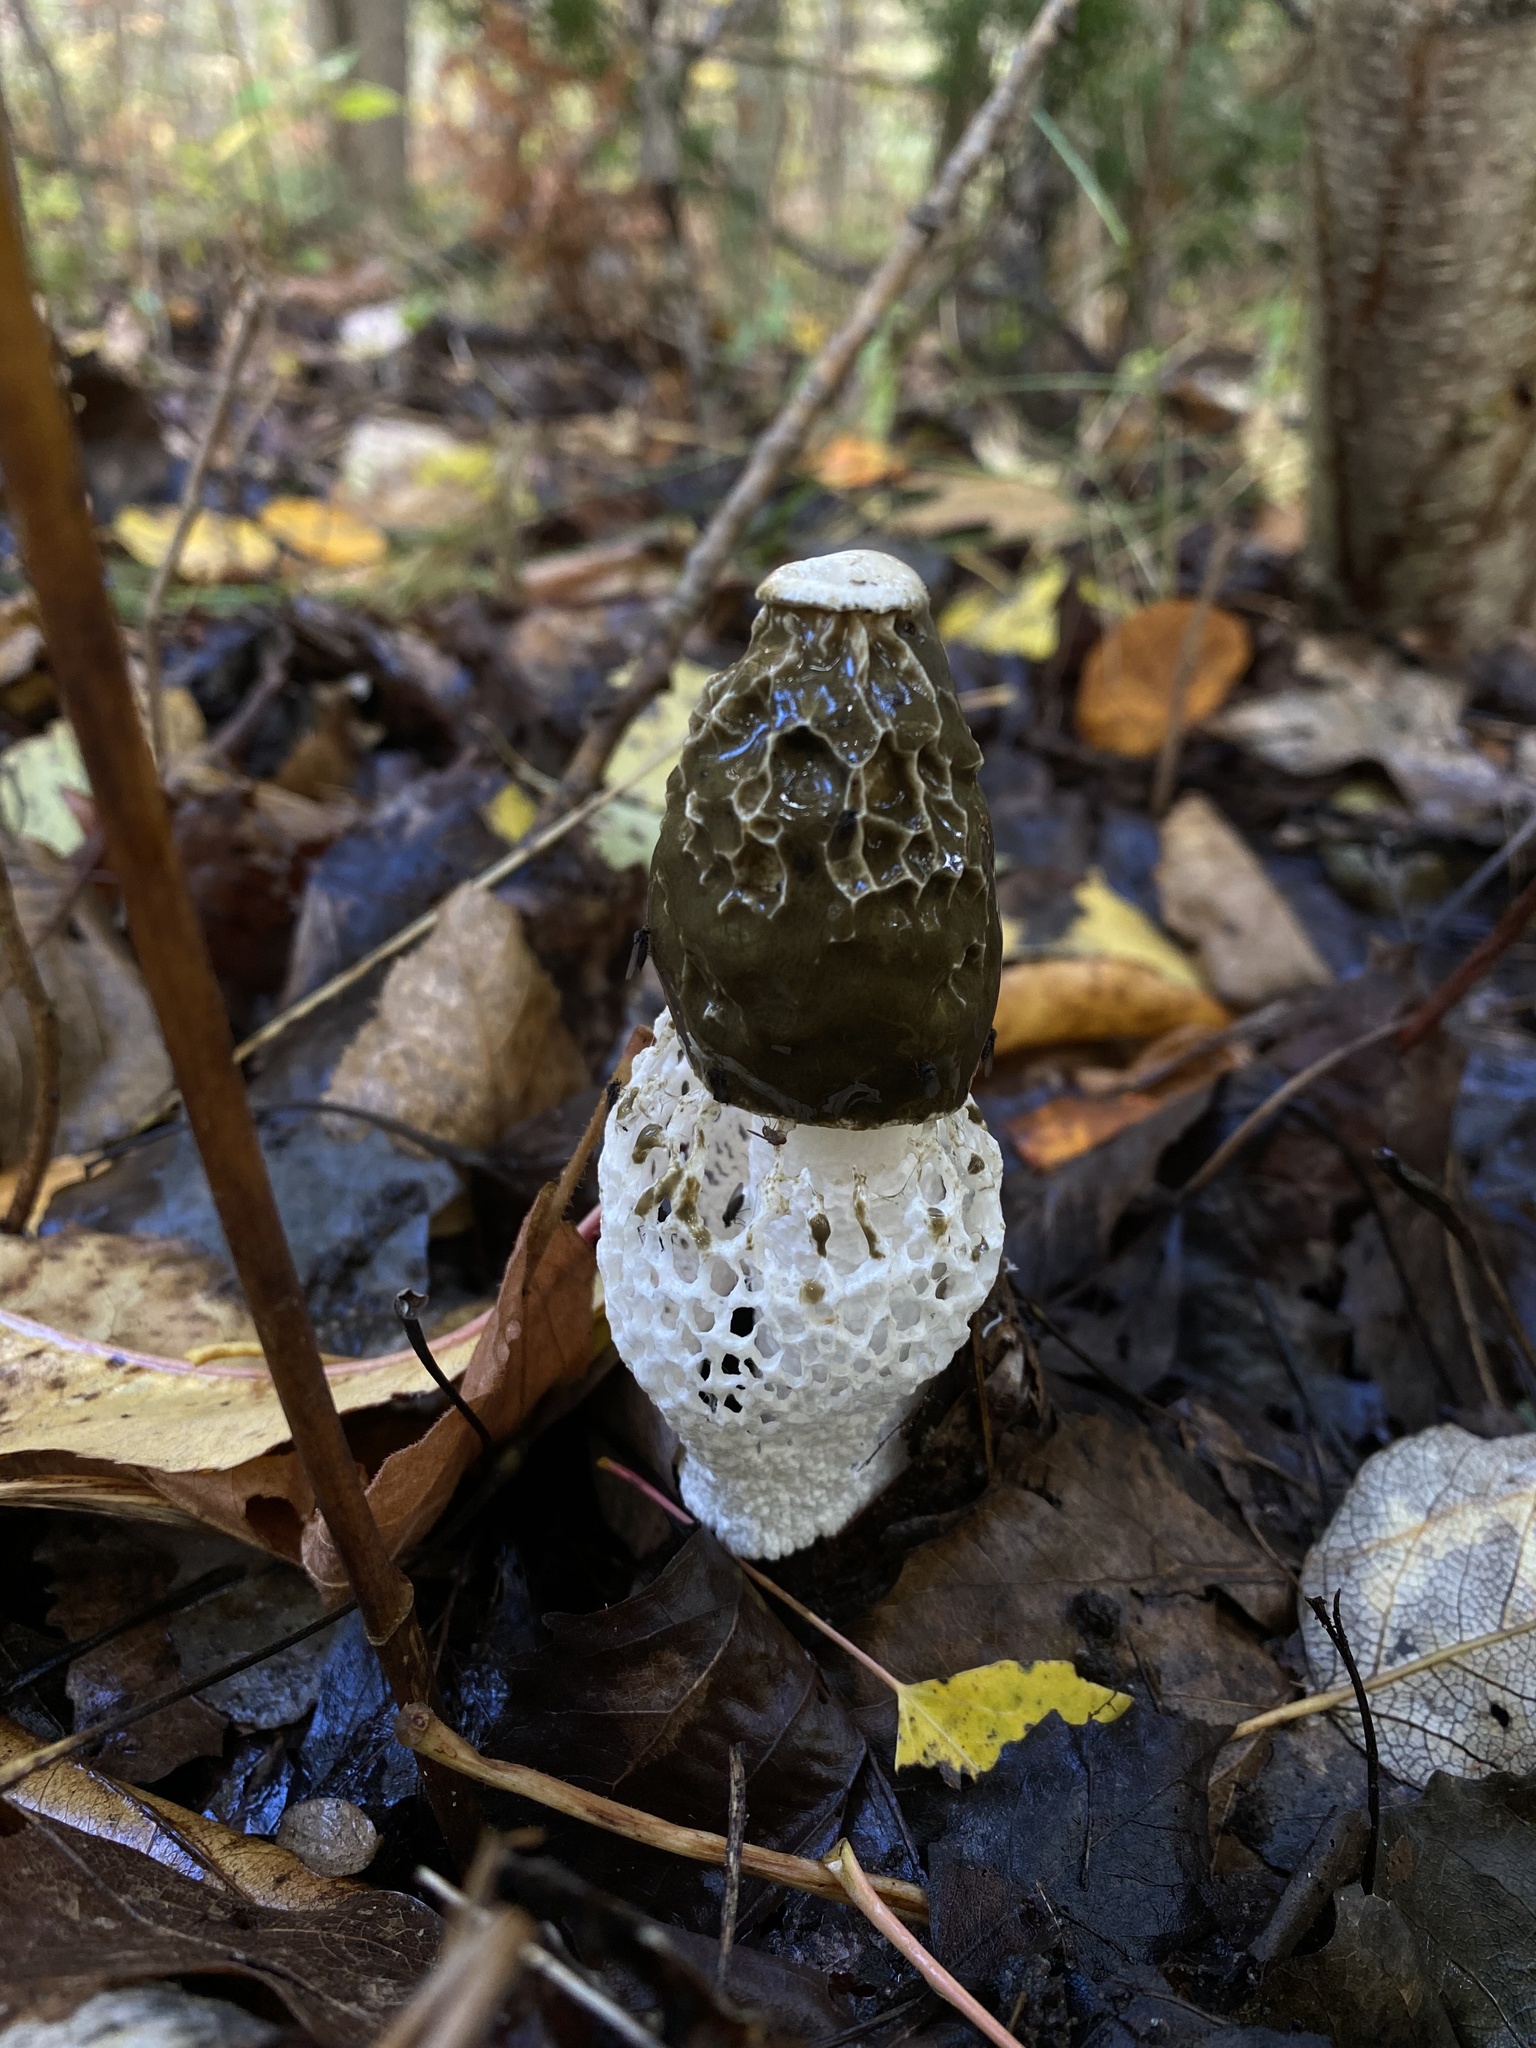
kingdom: Fungi
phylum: Basidiomycota
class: Agaricomycetes
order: Phallales
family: Phallaceae
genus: Phallus
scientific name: Phallus indusiatus
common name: Bridal veil stinkhorn
